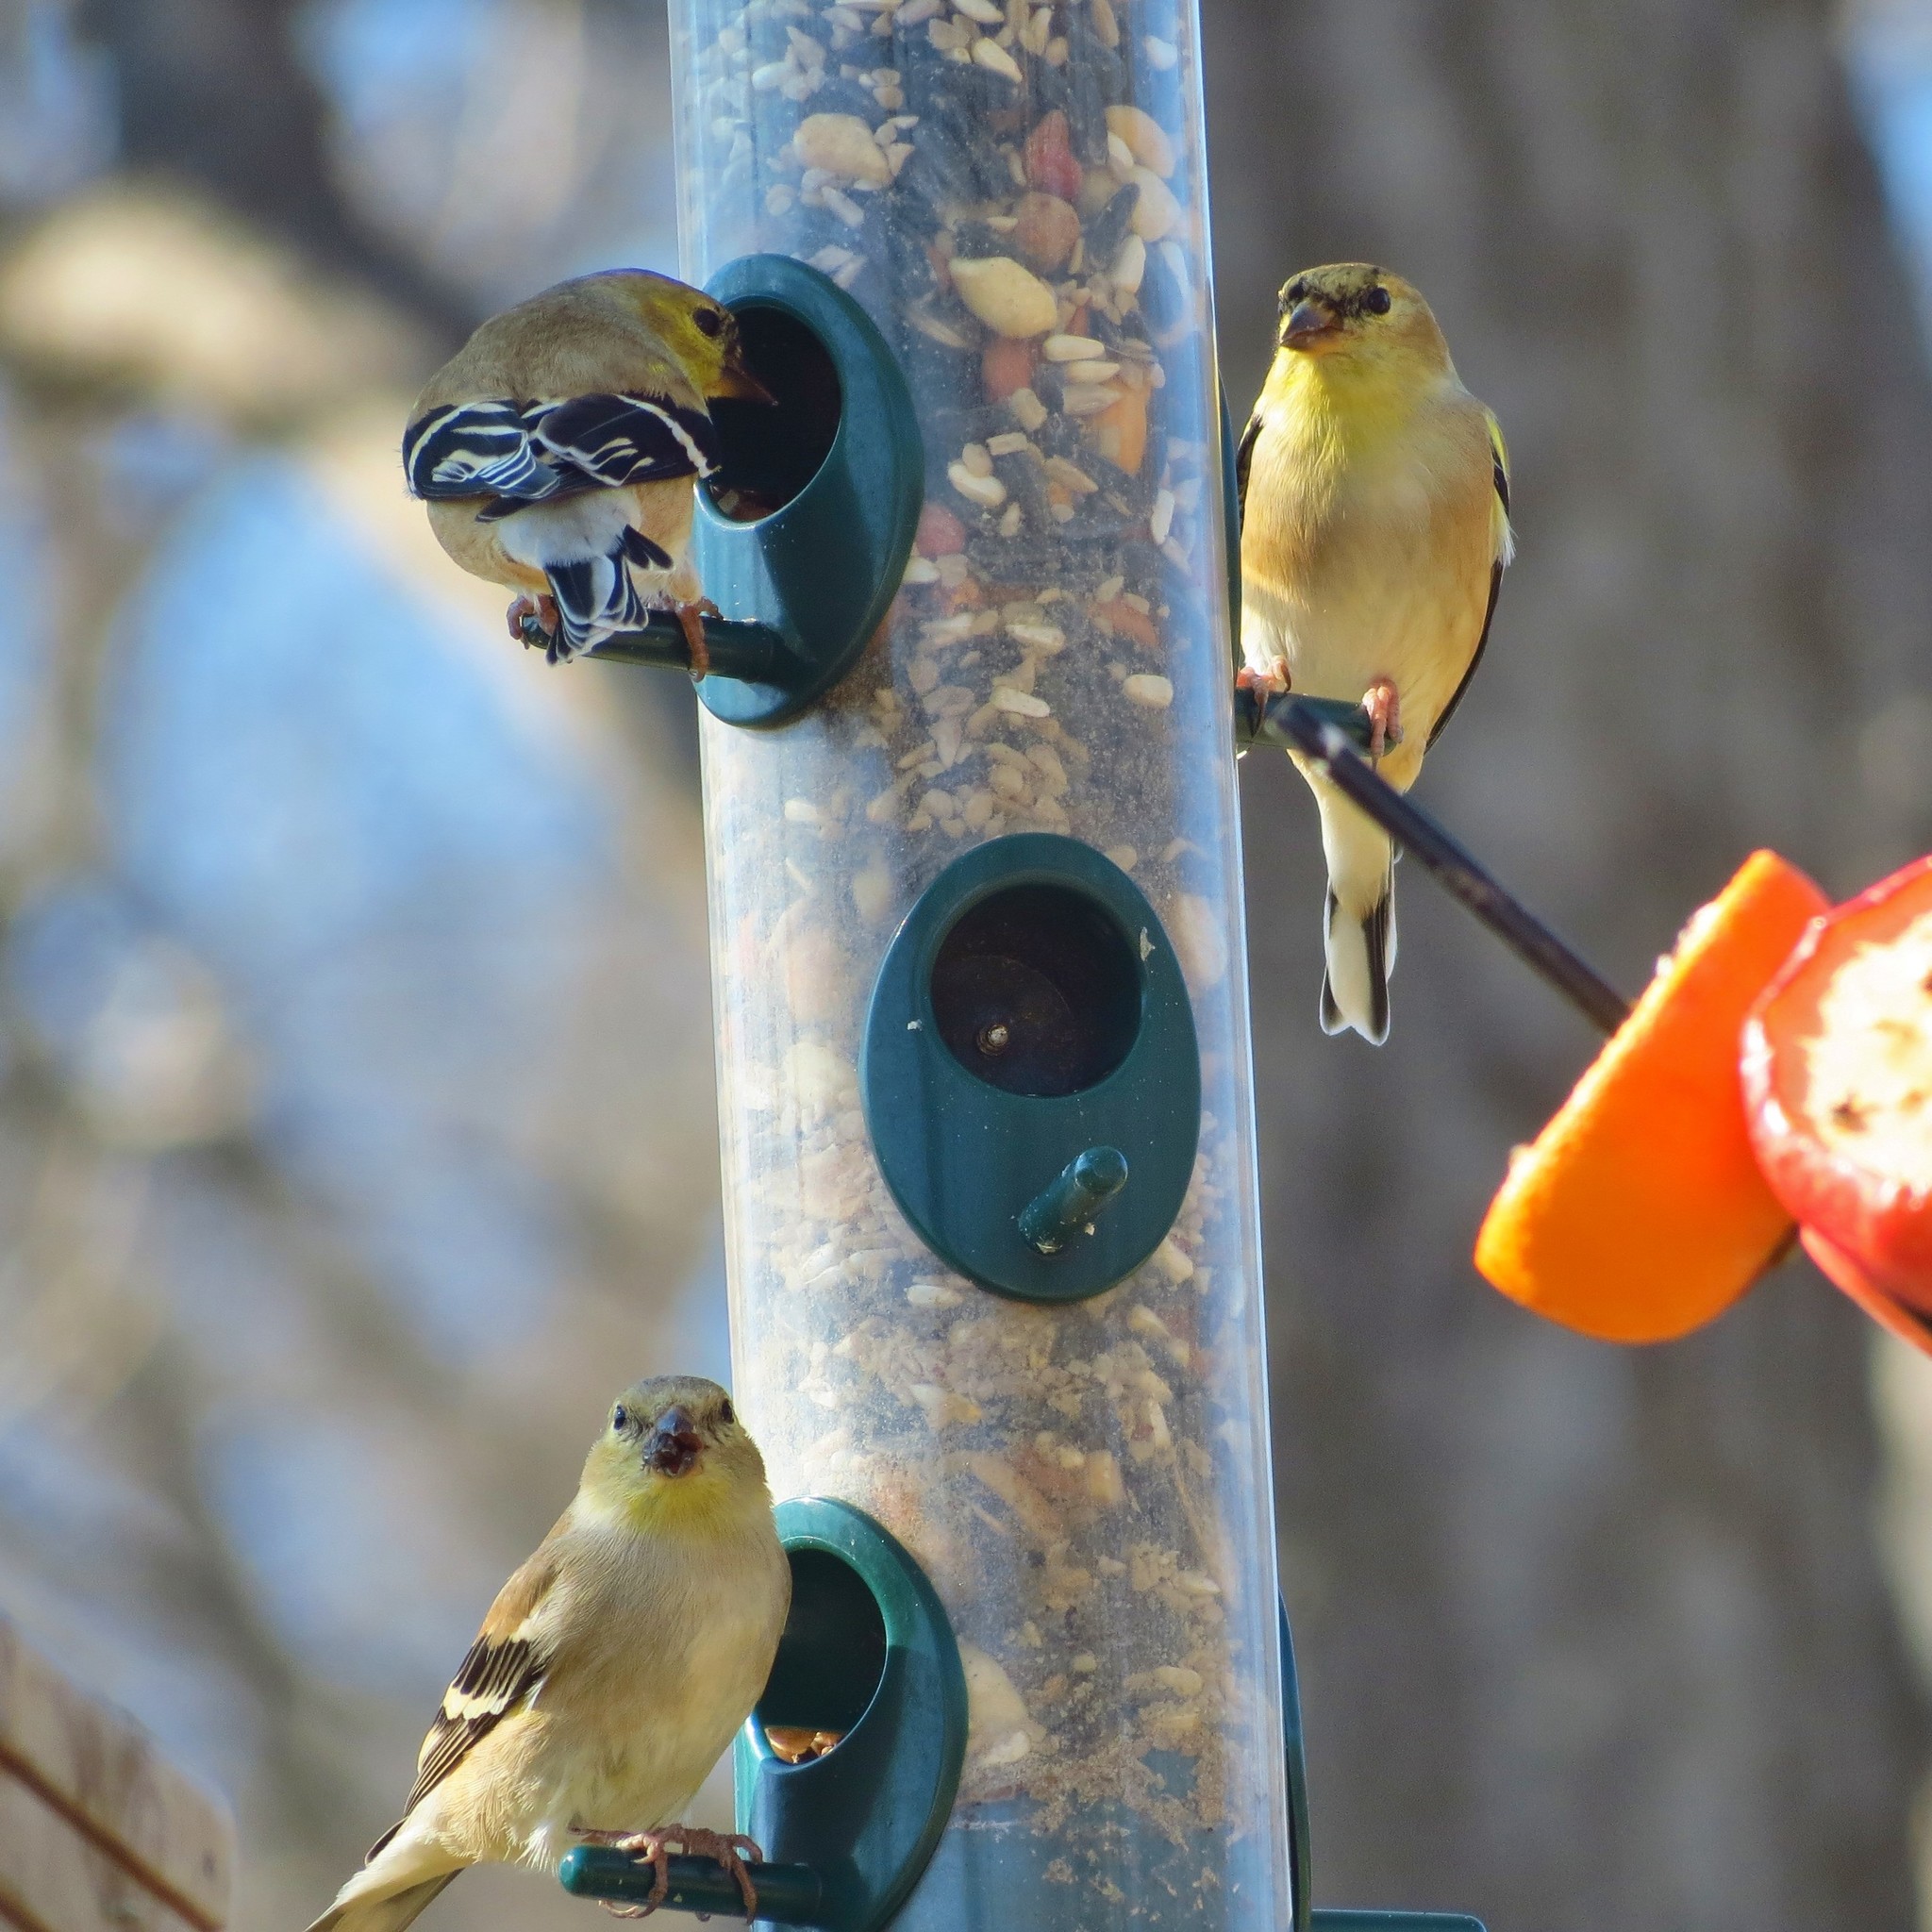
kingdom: Animalia
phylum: Chordata
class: Aves
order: Passeriformes
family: Fringillidae
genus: Spinus
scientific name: Spinus tristis
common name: American goldfinch
